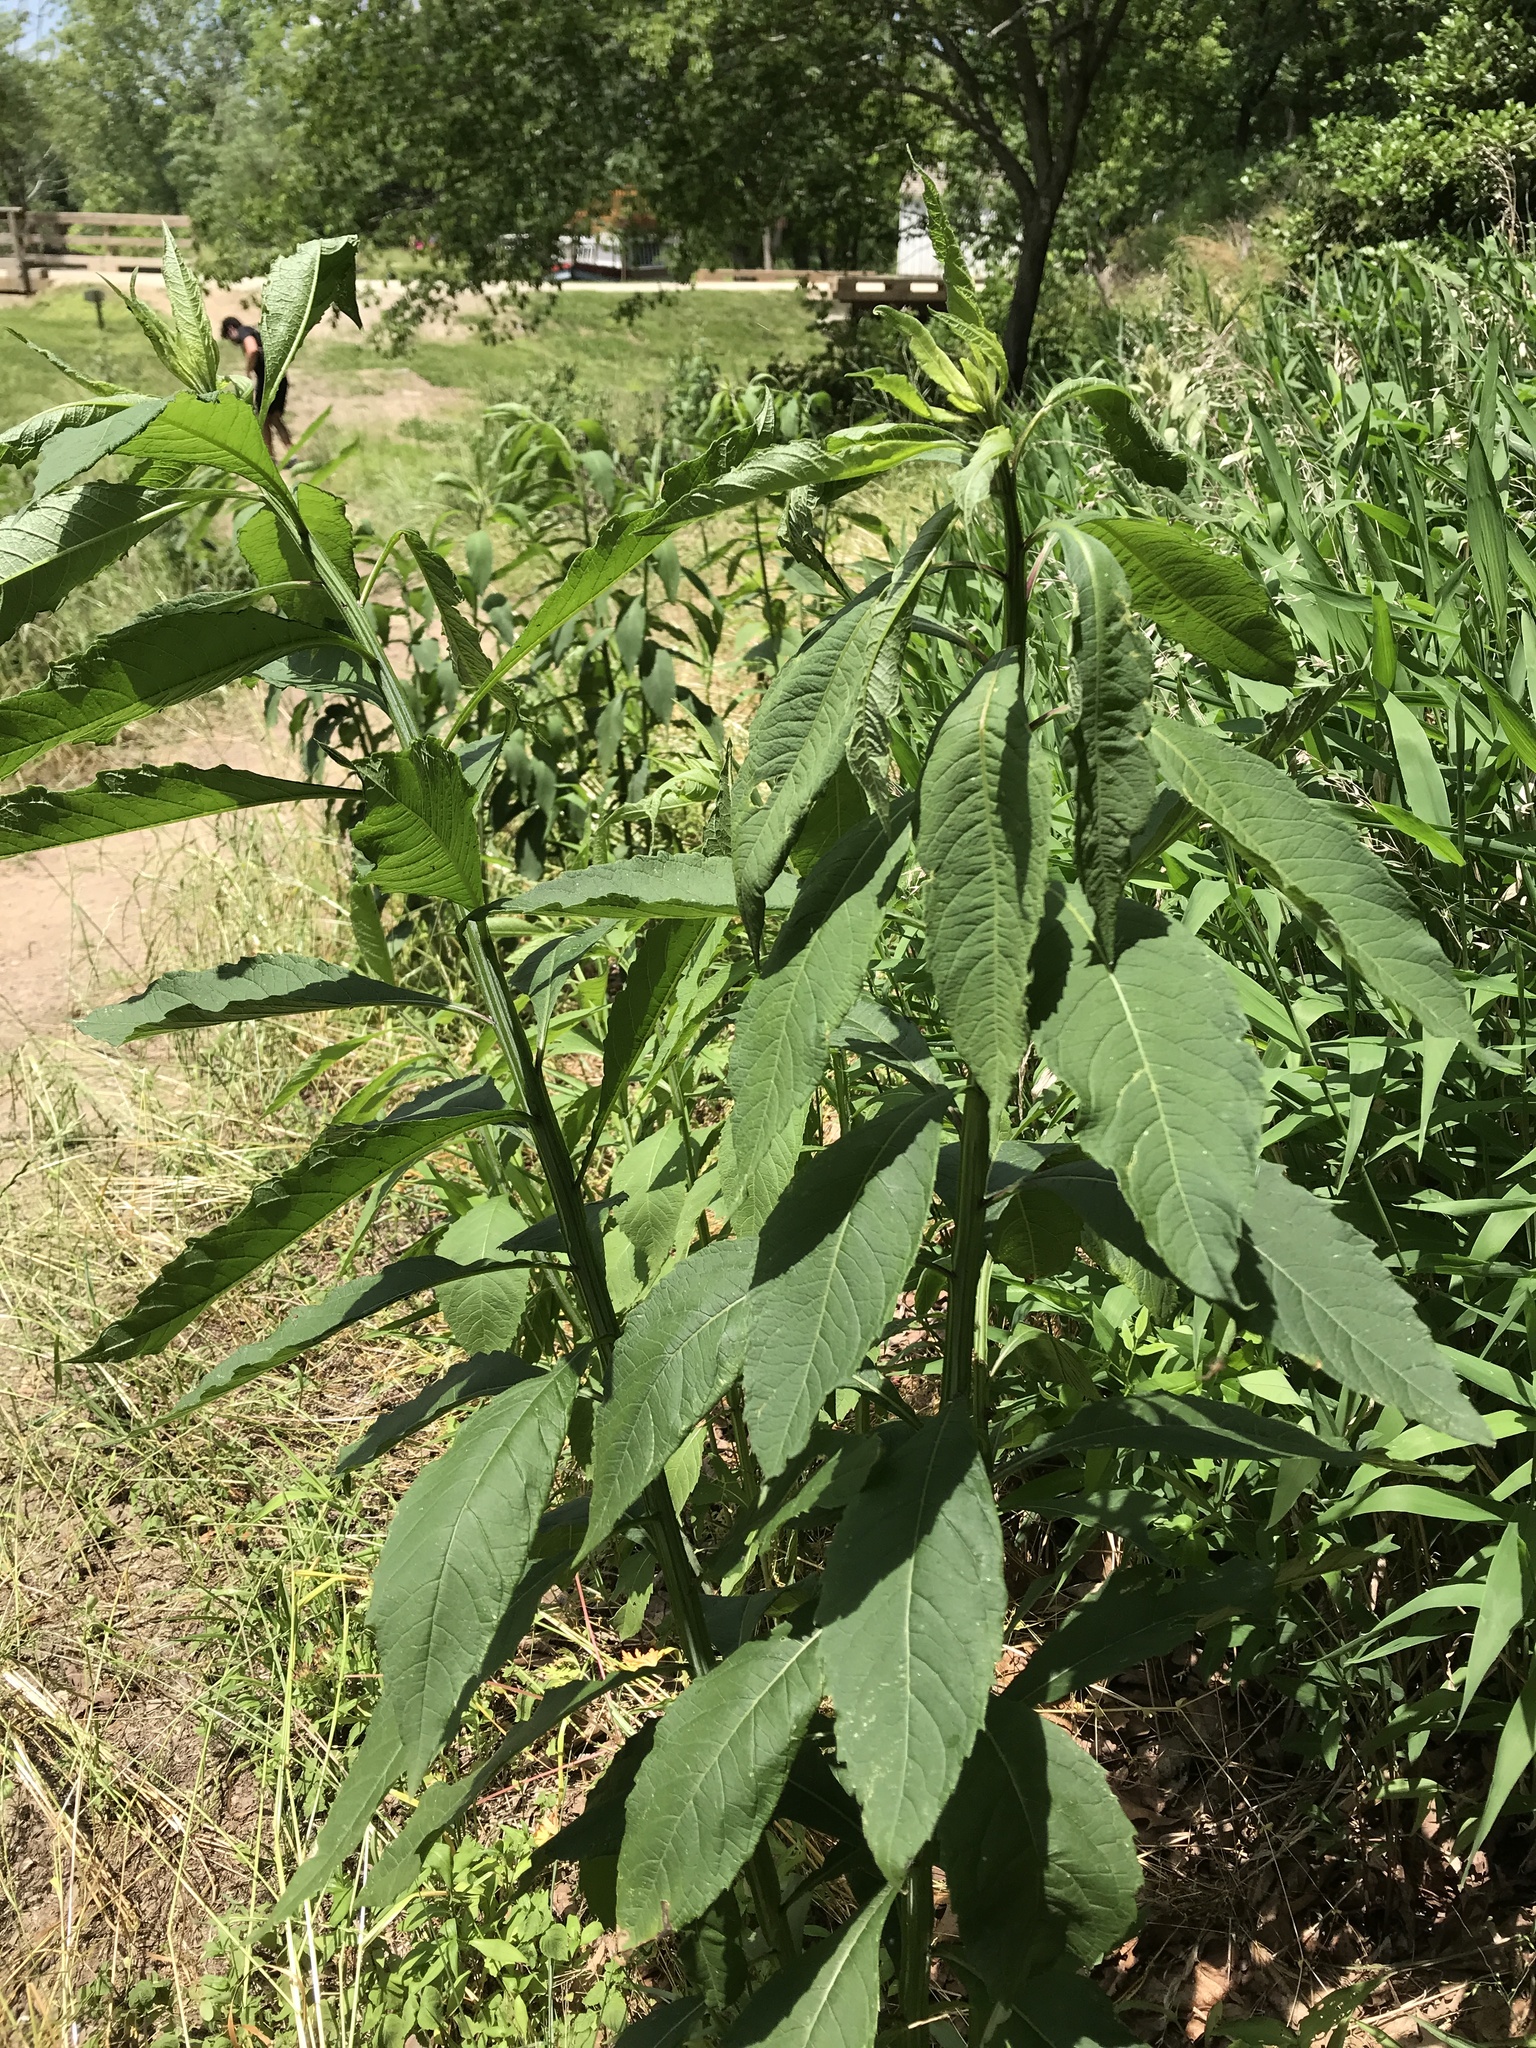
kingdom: Plantae
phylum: Tracheophyta
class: Magnoliopsida
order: Asterales
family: Asteraceae
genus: Verbesina
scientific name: Verbesina alternifolia
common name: Wingstem
